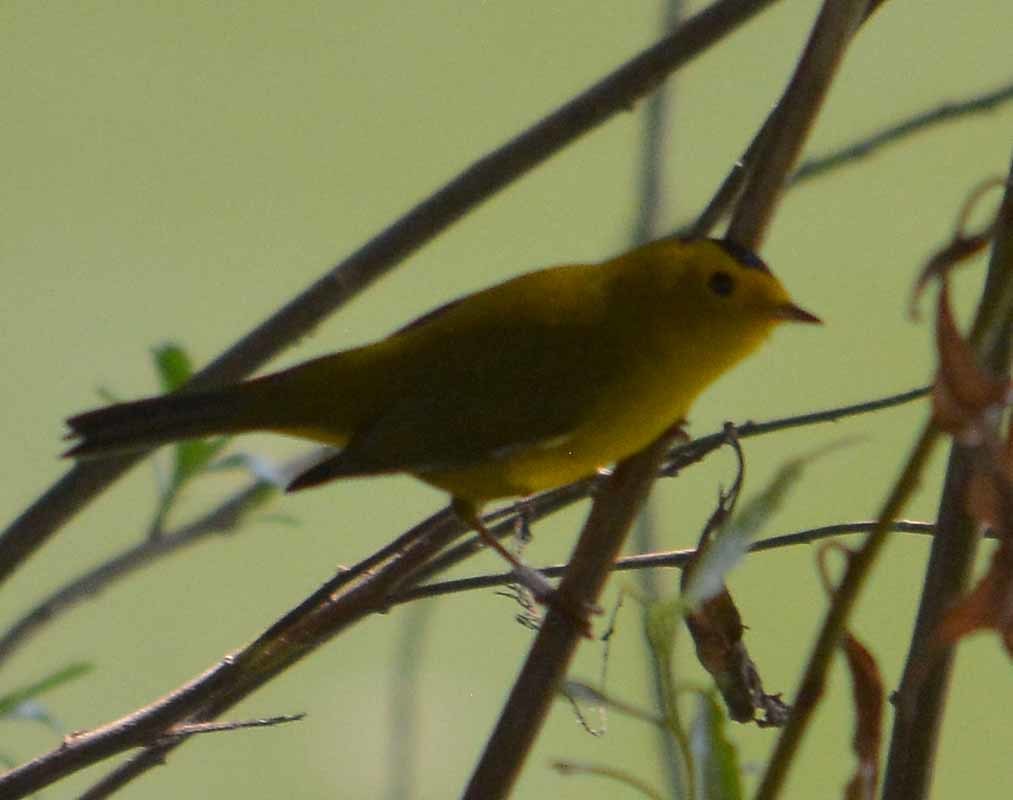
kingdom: Animalia
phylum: Chordata
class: Aves
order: Passeriformes
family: Parulidae
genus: Cardellina
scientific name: Cardellina pusilla
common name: Wilson's warbler
